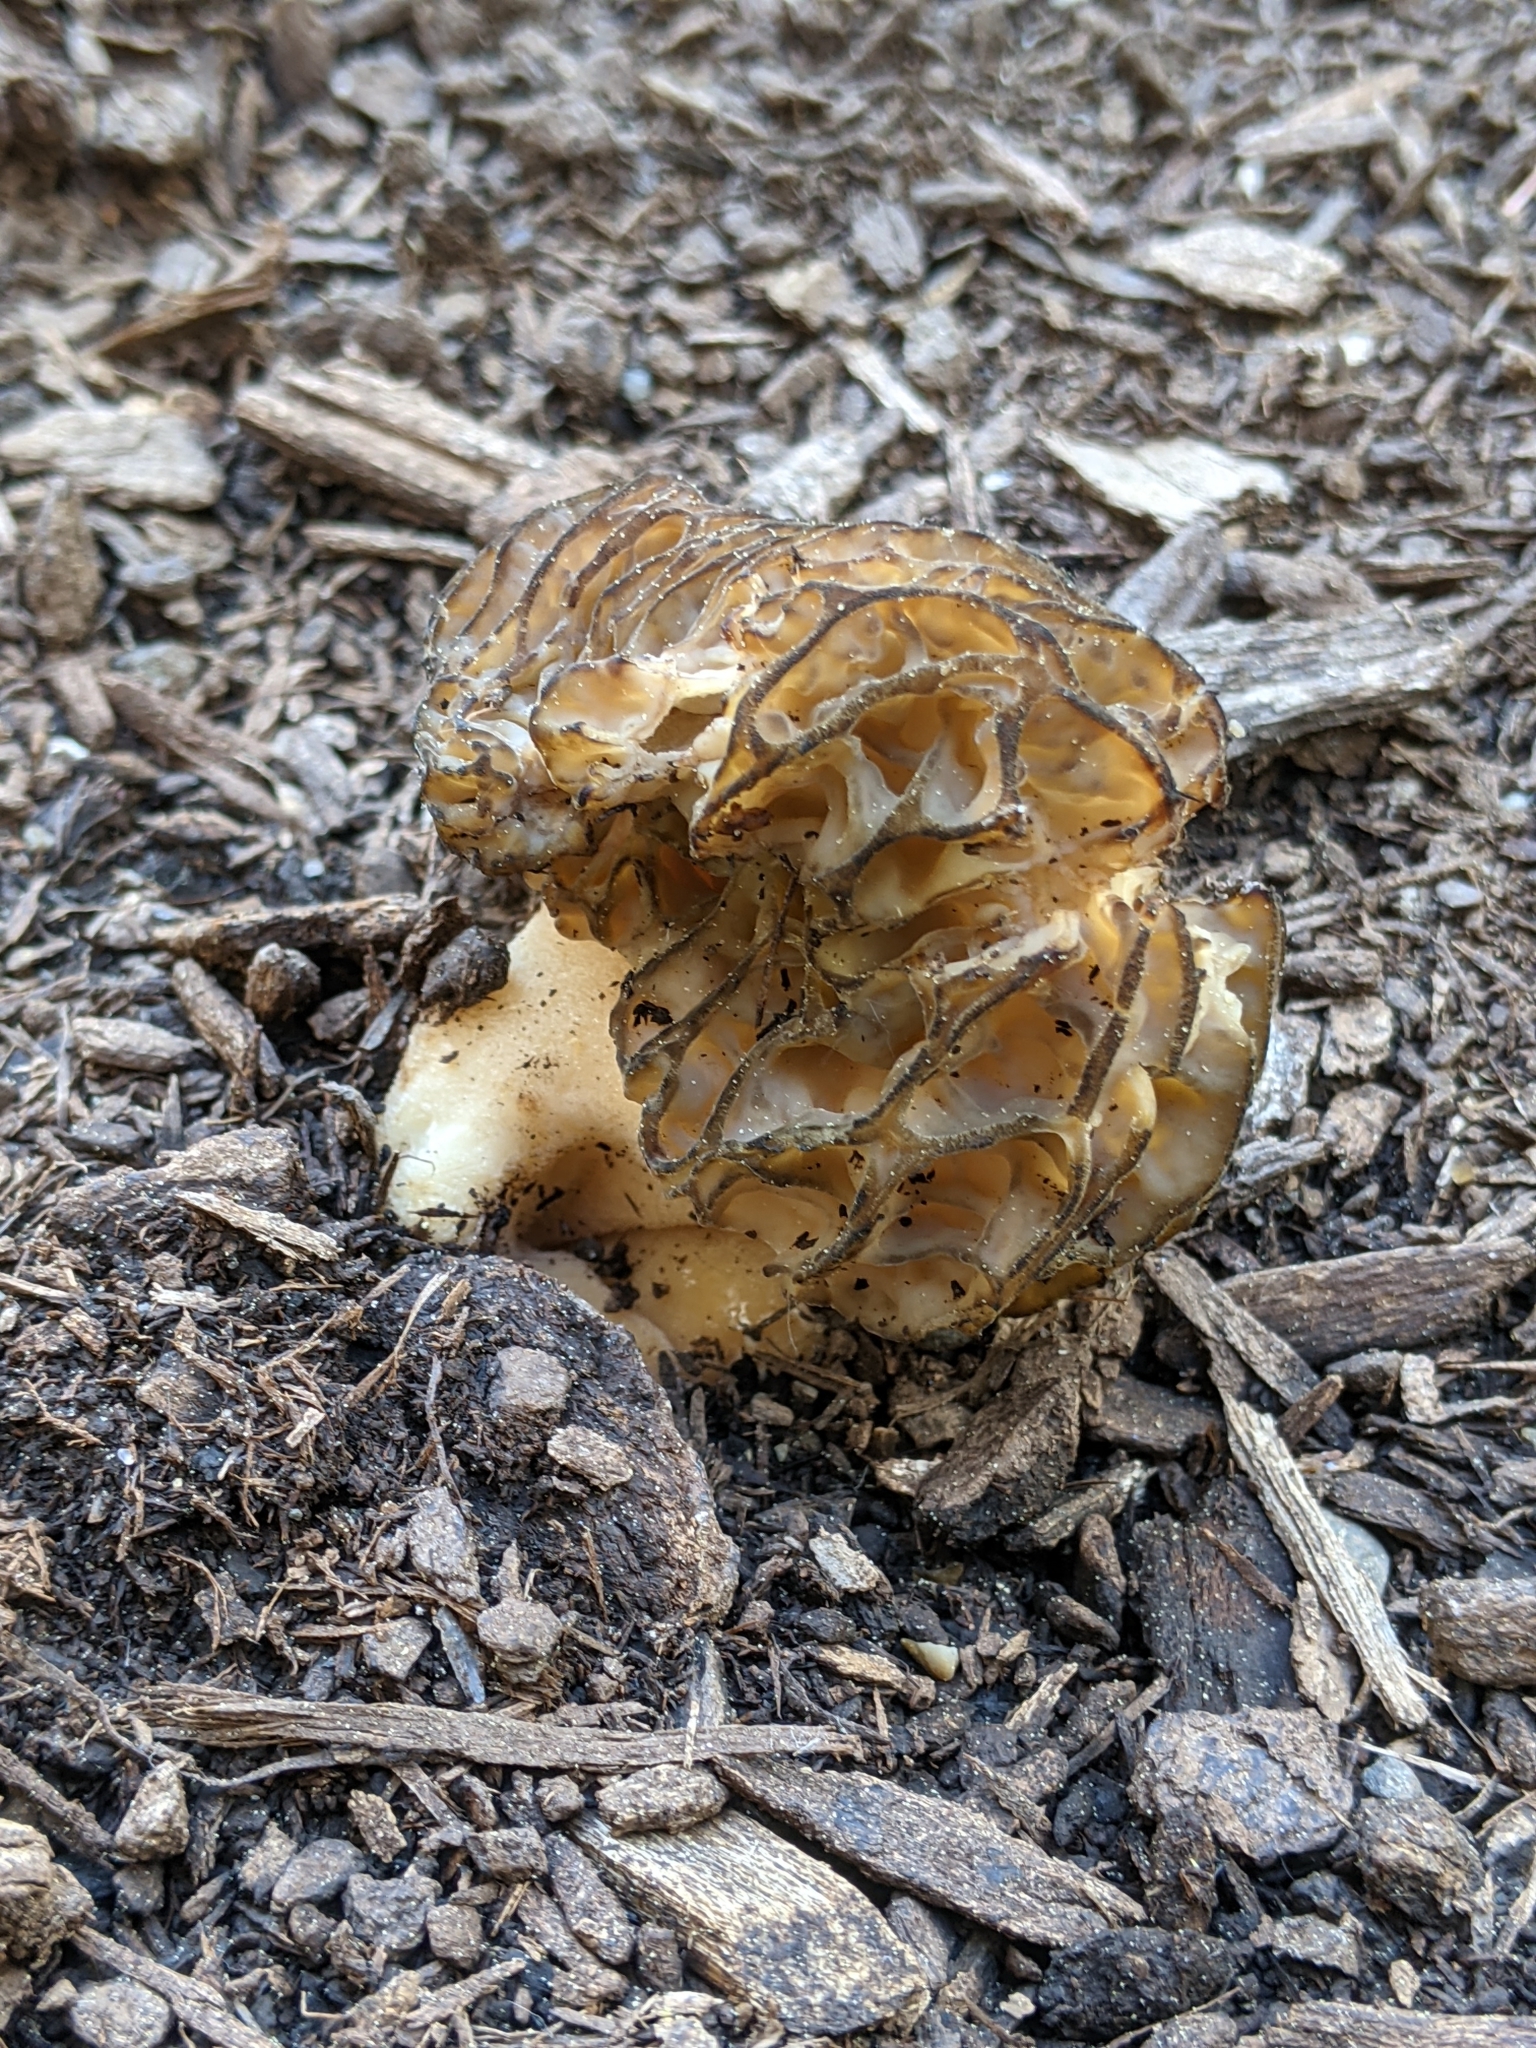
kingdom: Fungi
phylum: Ascomycota
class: Pezizomycetes
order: Pezizales
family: Morchellaceae
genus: Morchella
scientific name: Morchella importuna
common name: Landscaping black morel
